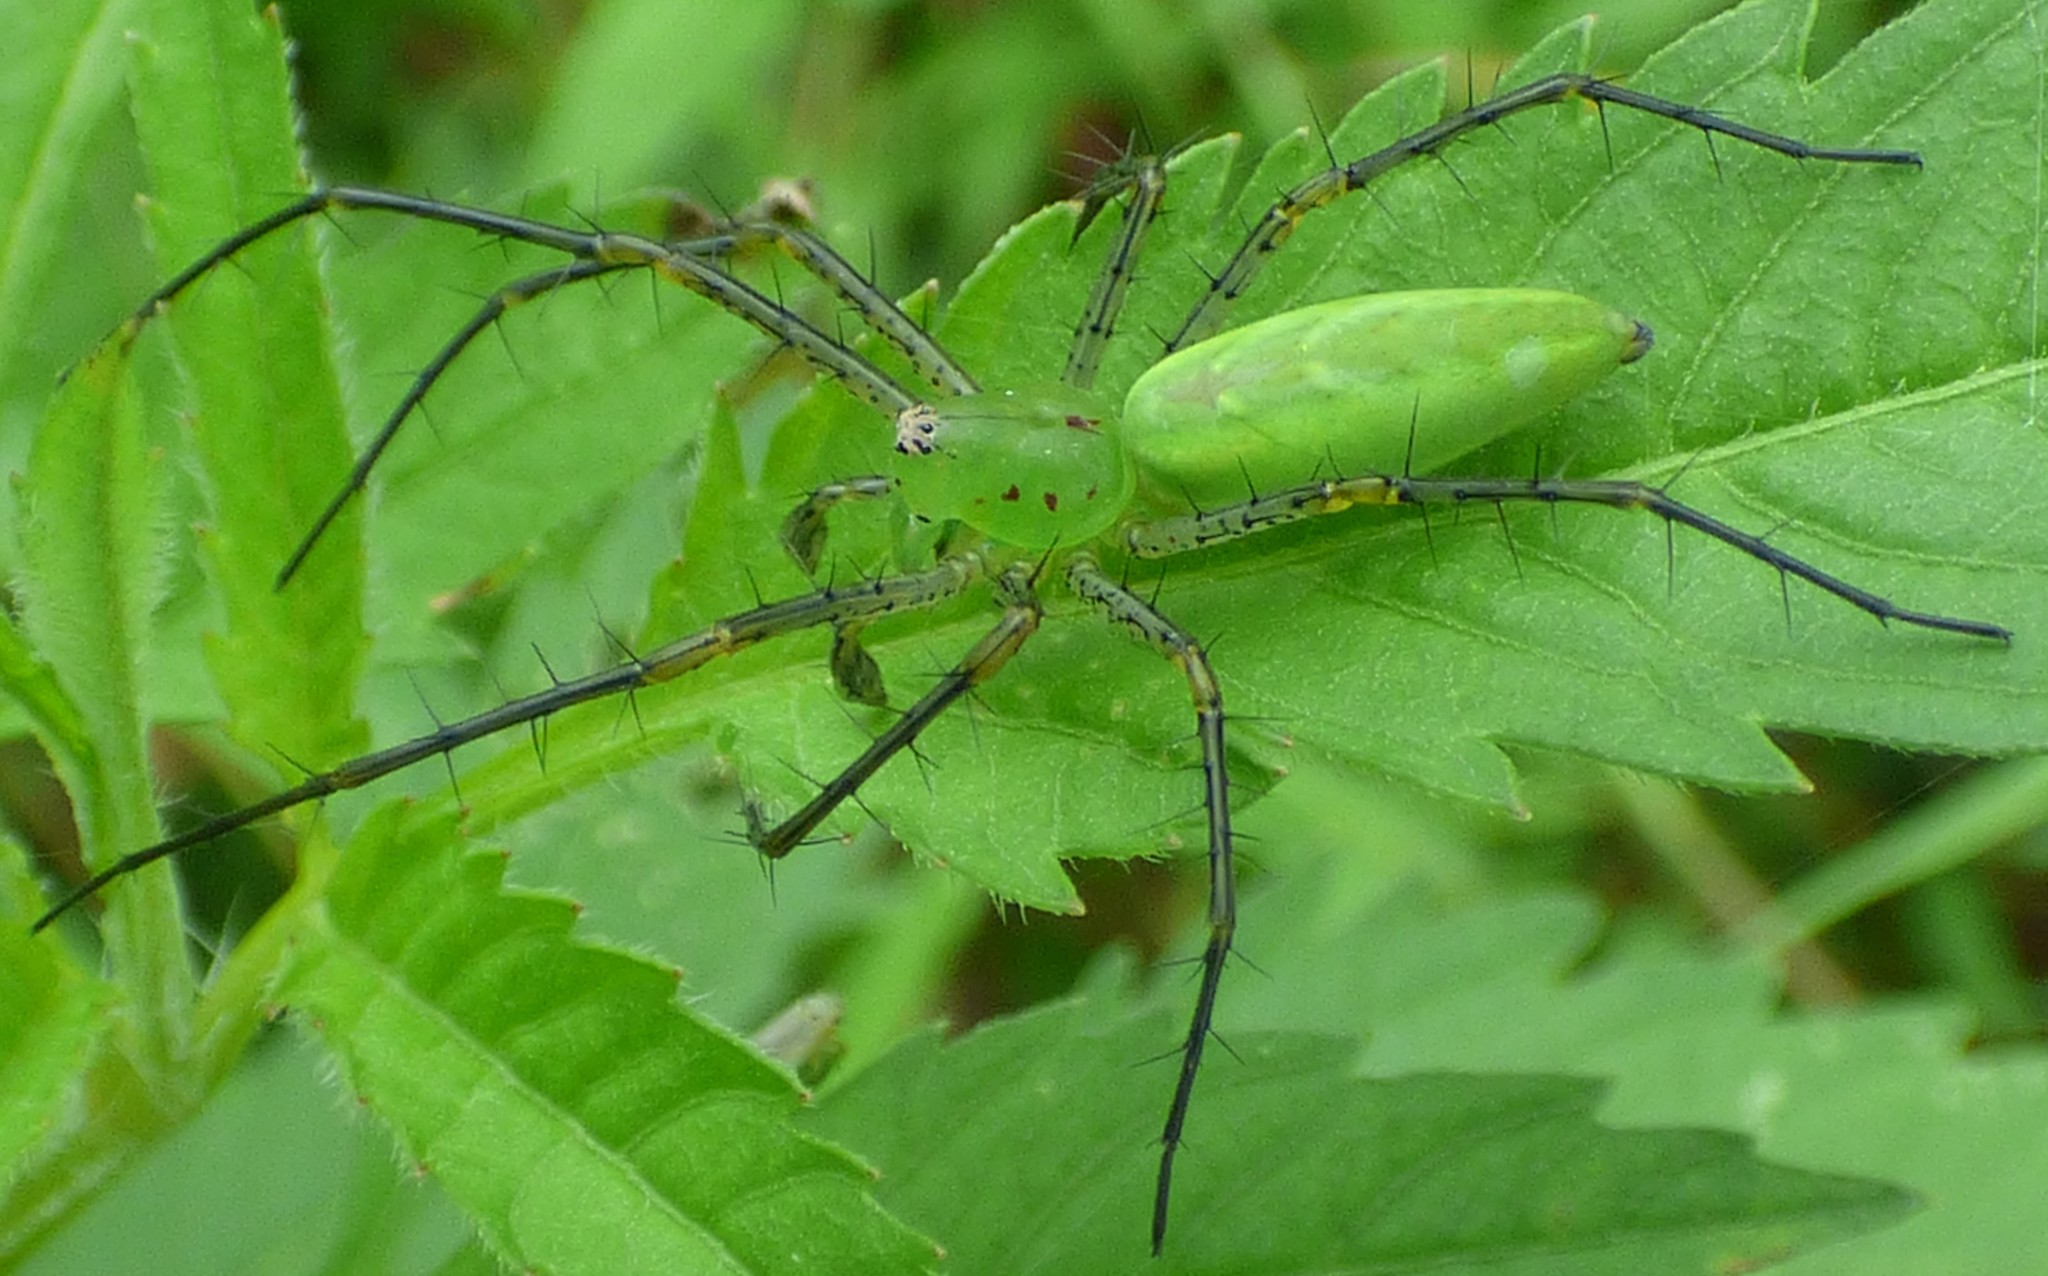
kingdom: Animalia
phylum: Arthropoda
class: Arachnida
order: Araneae
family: Oxyopidae
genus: Peucetia
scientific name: Peucetia viridans
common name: Lynx spiders
